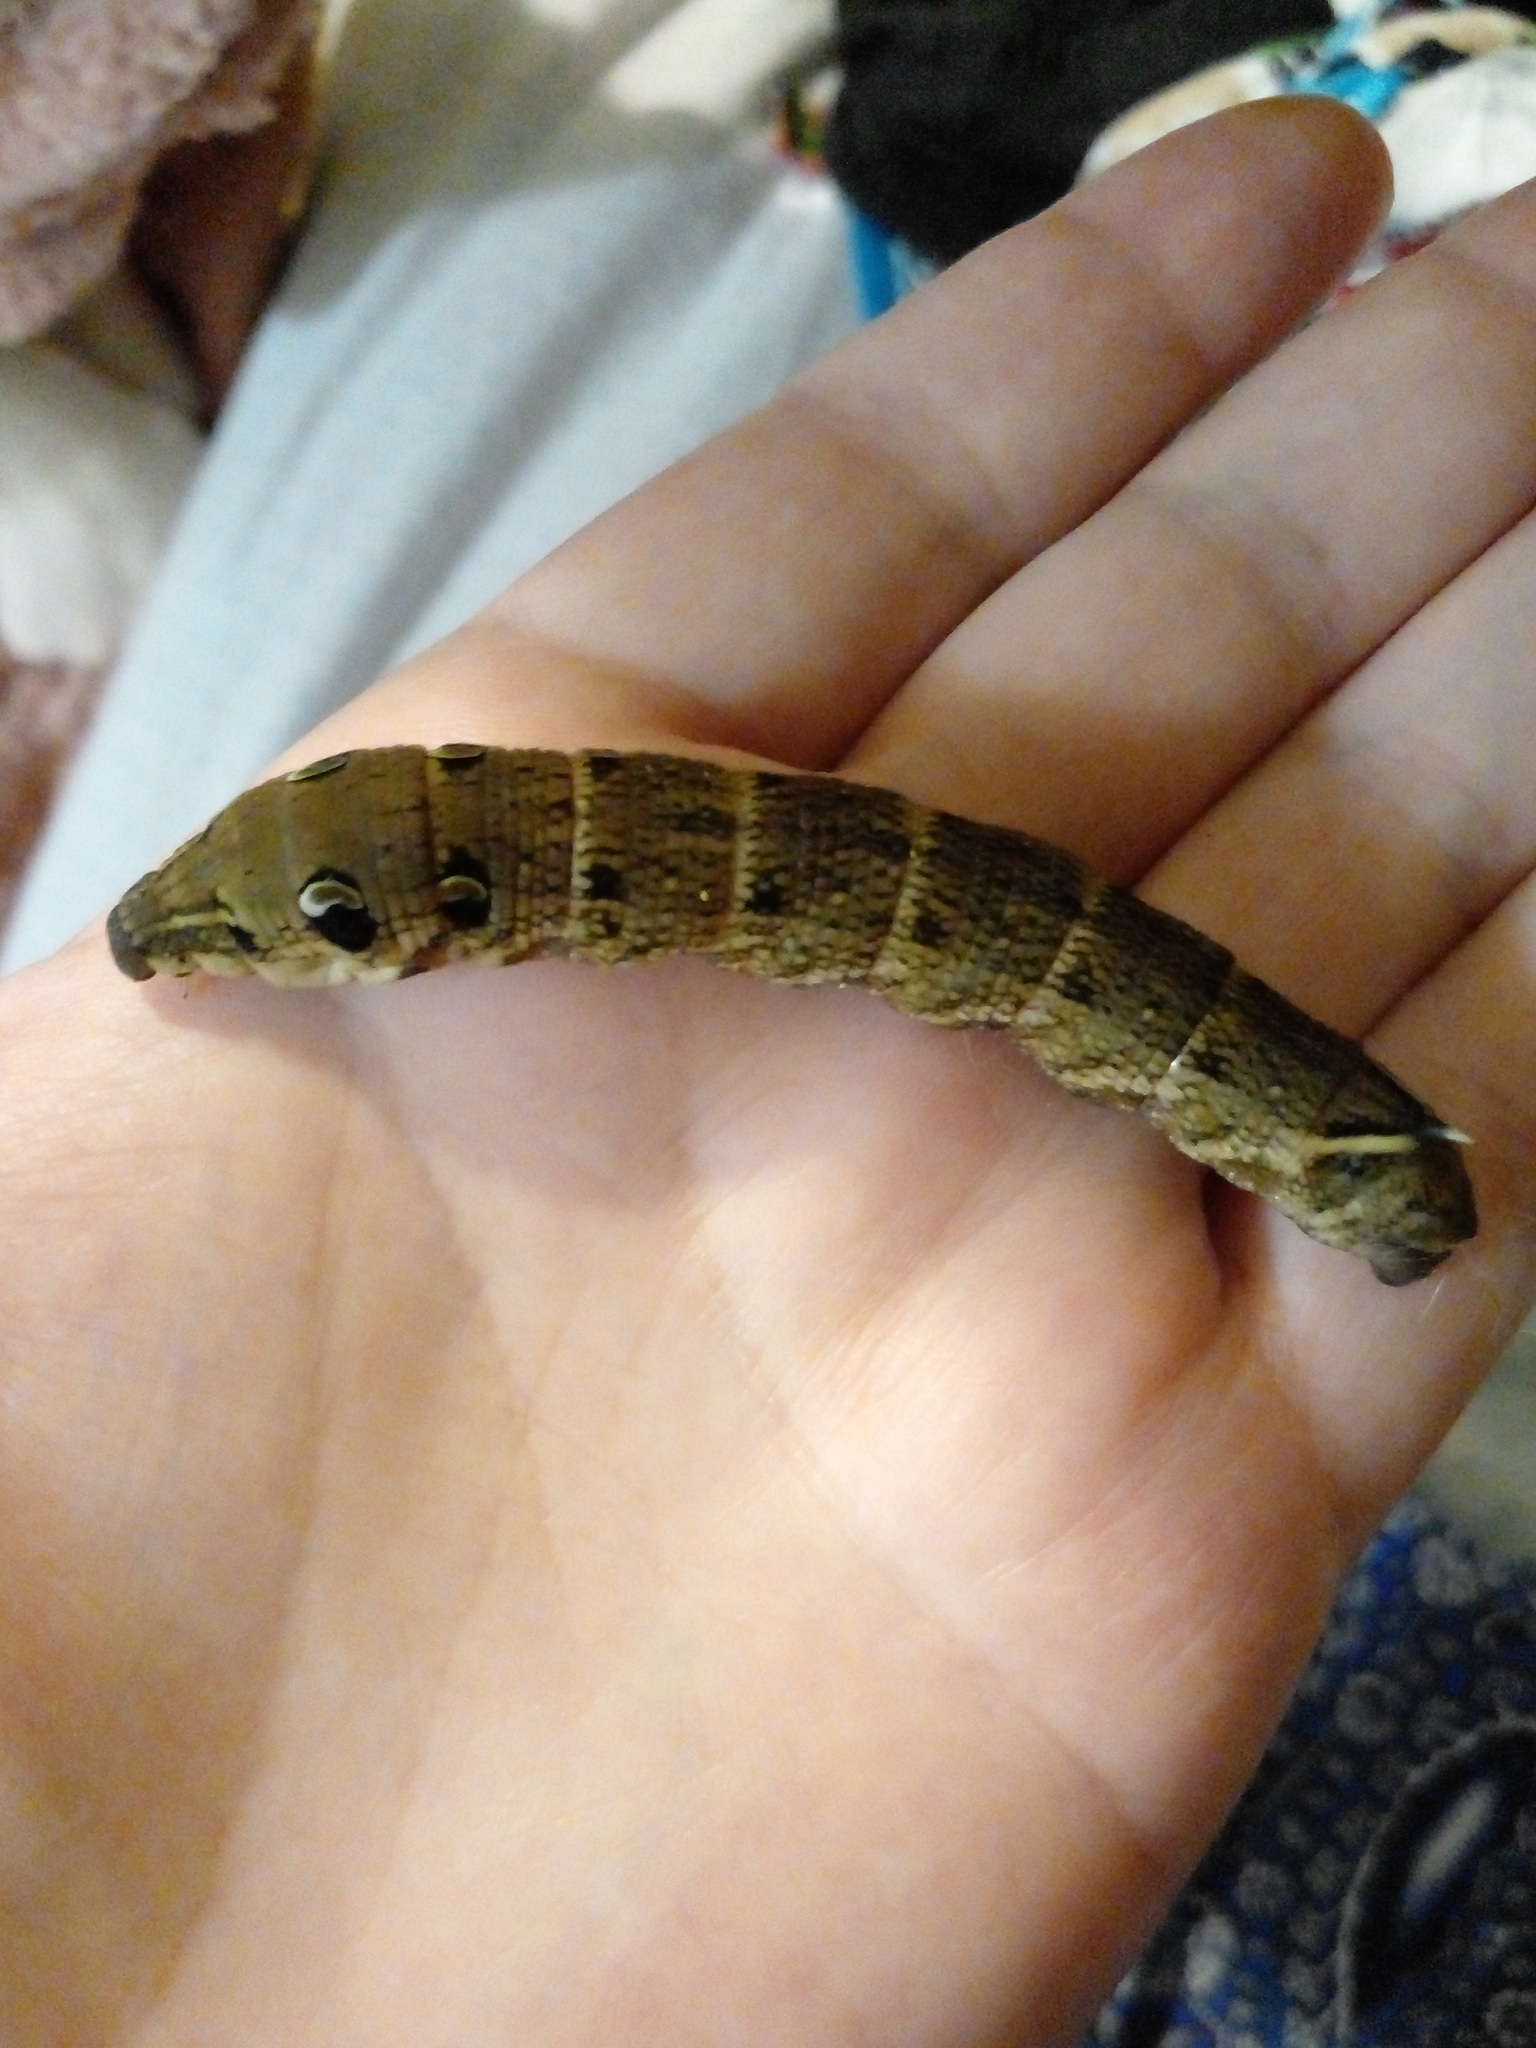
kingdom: Animalia
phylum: Arthropoda
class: Insecta
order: Lepidoptera
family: Sphingidae
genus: Deilephila
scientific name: Deilephila elpenor
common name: Elephant hawk-moth
